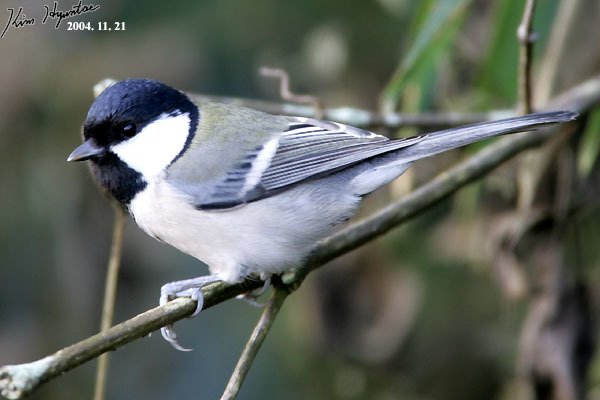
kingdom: Animalia
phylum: Chordata
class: Aves
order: Passeriformes
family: Paridae
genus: Parus
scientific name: Parus minor
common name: Japanese tit
